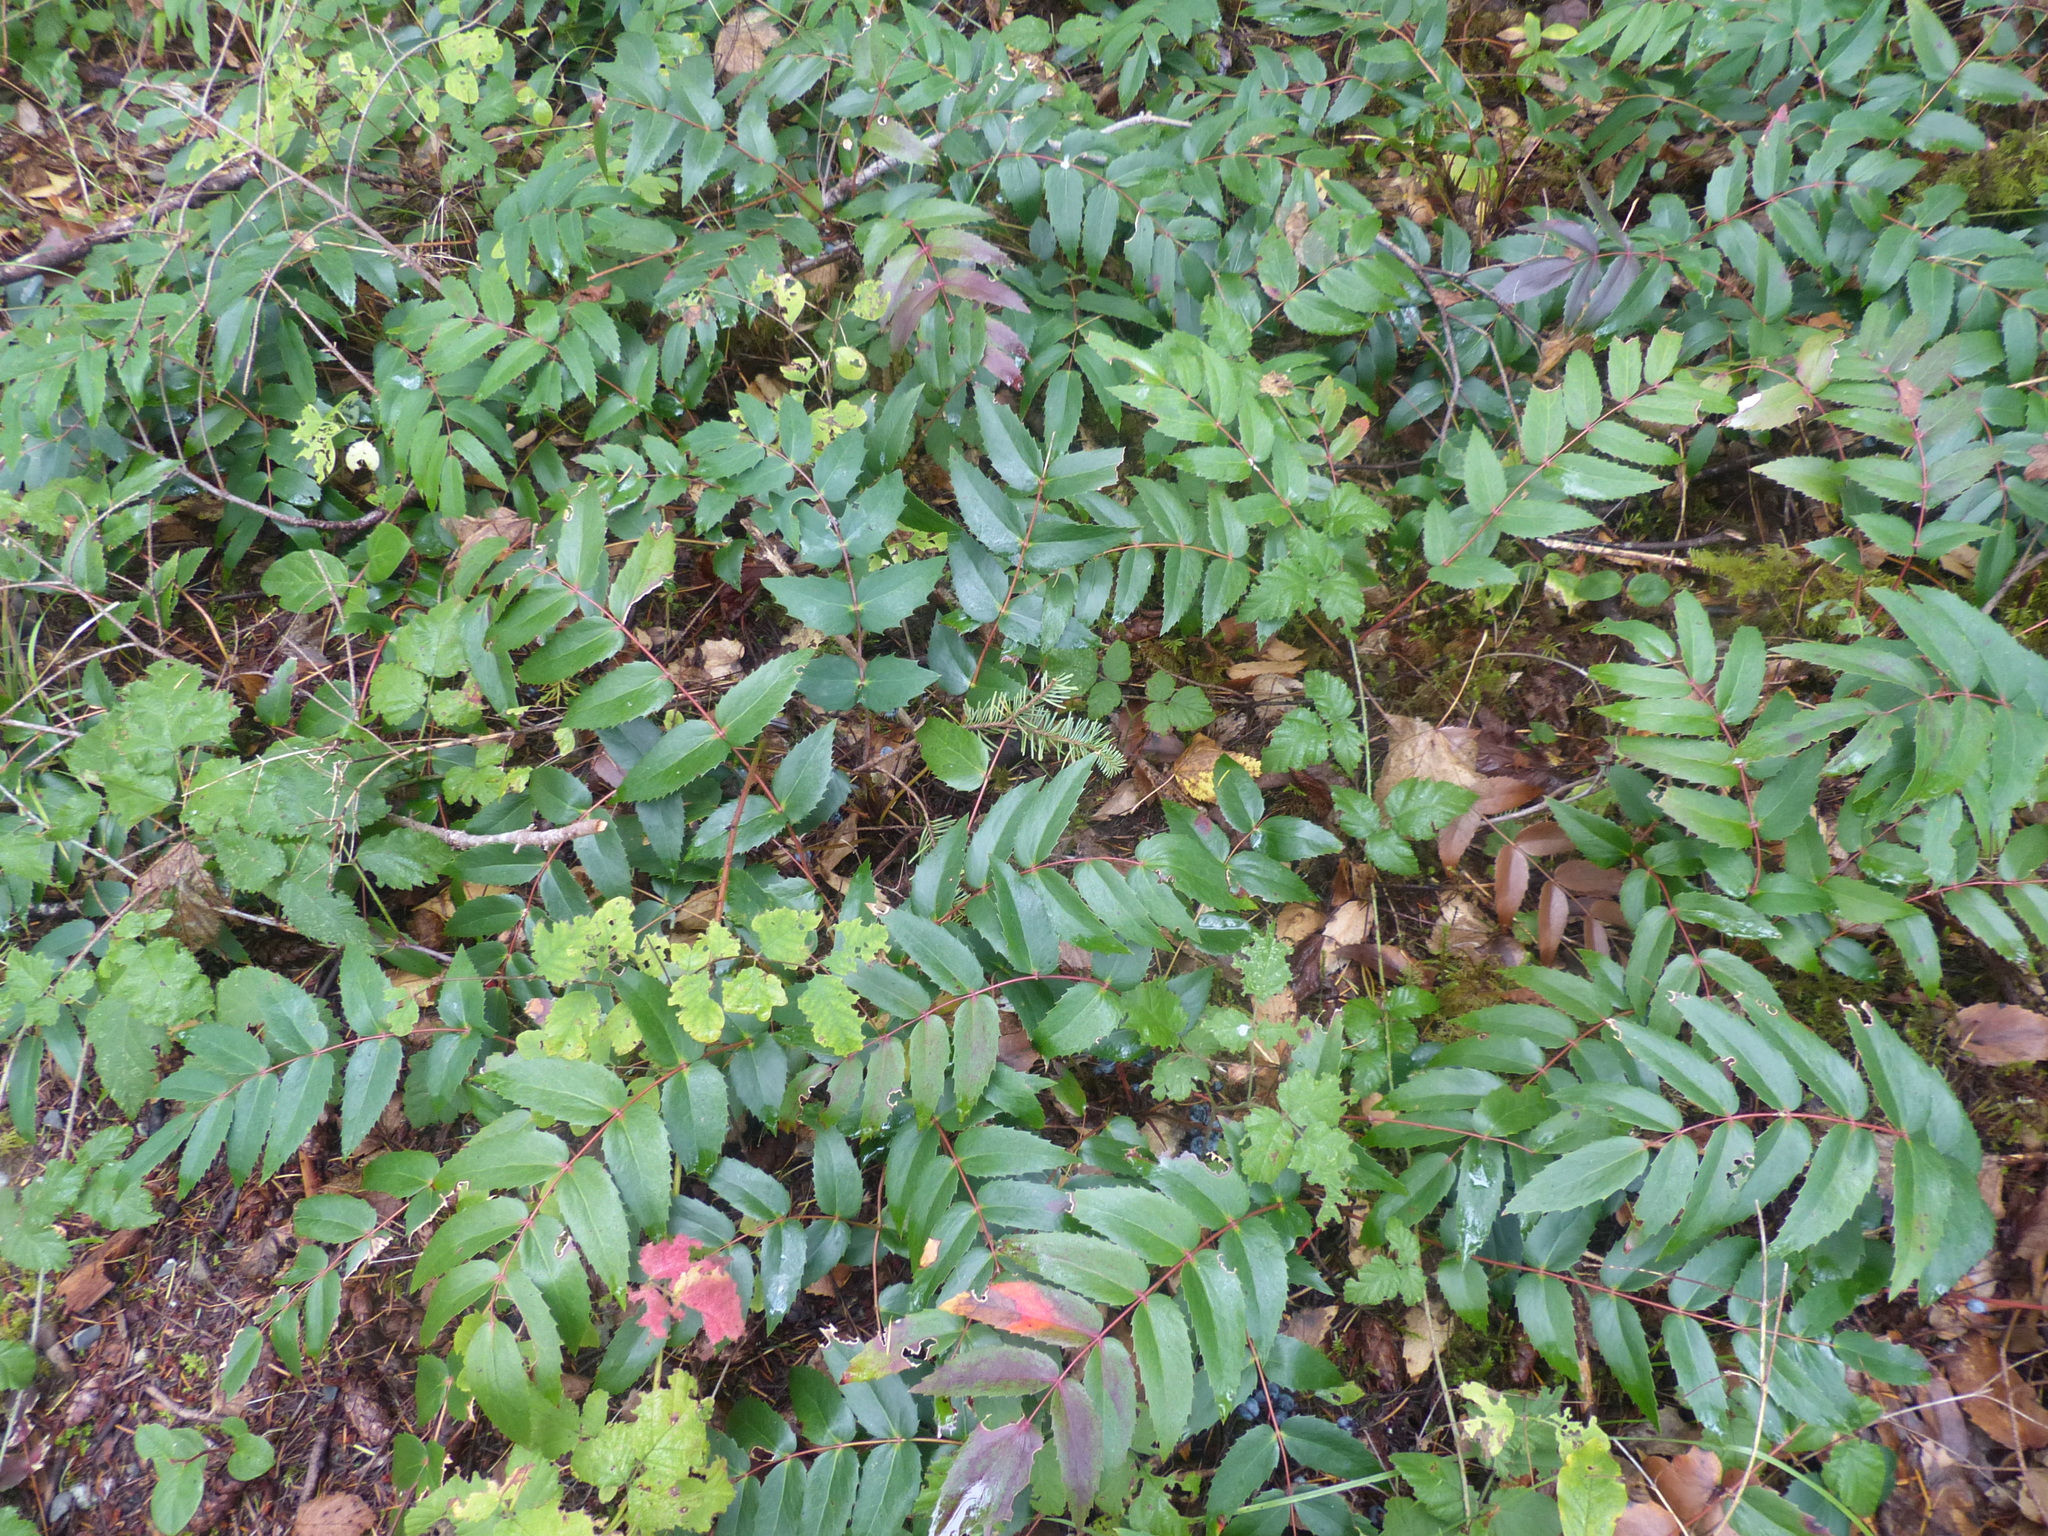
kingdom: Plantae
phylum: Tracheophyta
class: Magnoliopsida
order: Ranunculales
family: Berberidaceae
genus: Mahonia
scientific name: Mahonia nervosa
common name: Cascade oregon-grape
